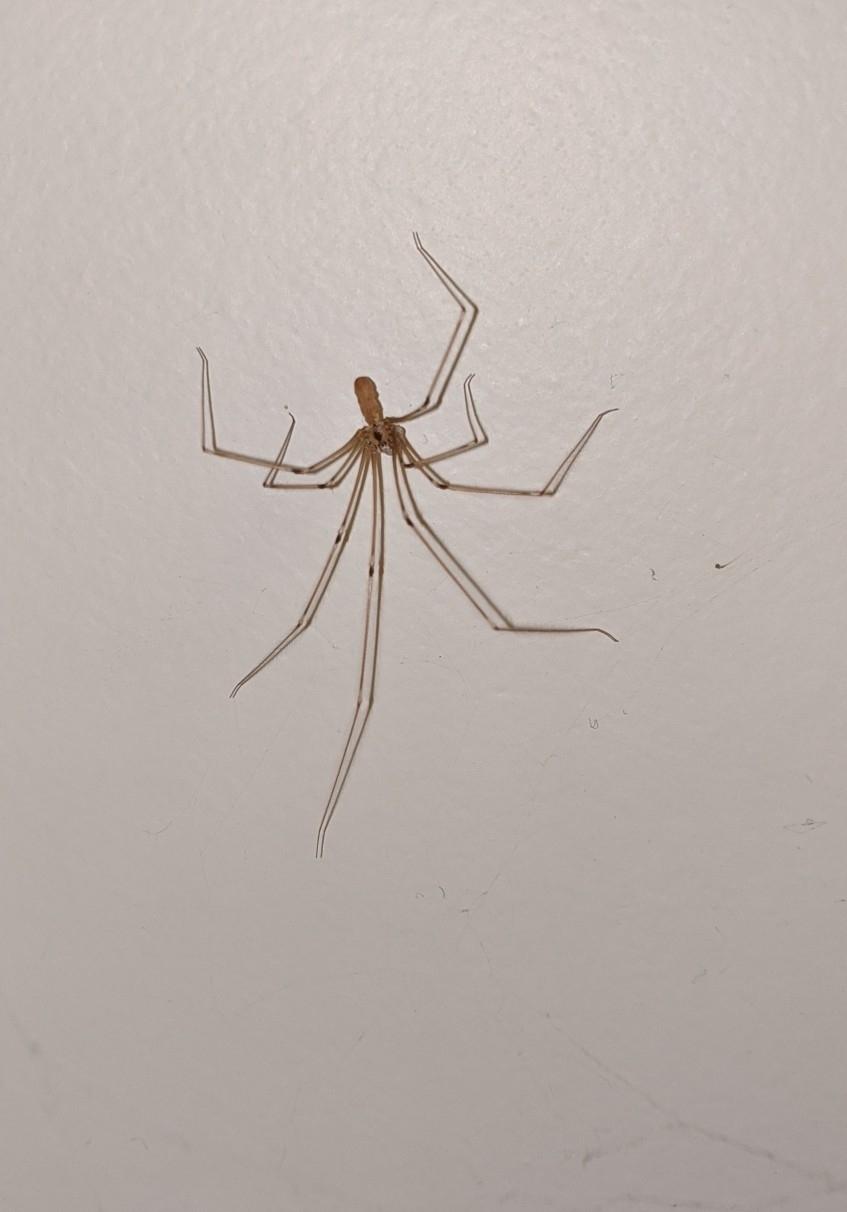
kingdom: Animalia
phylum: Arthropoda
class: Arachnida
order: Araneae
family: Pholcidae
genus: Pholcus
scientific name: Pholcus phalangioides
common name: Longbodied cellar spider
